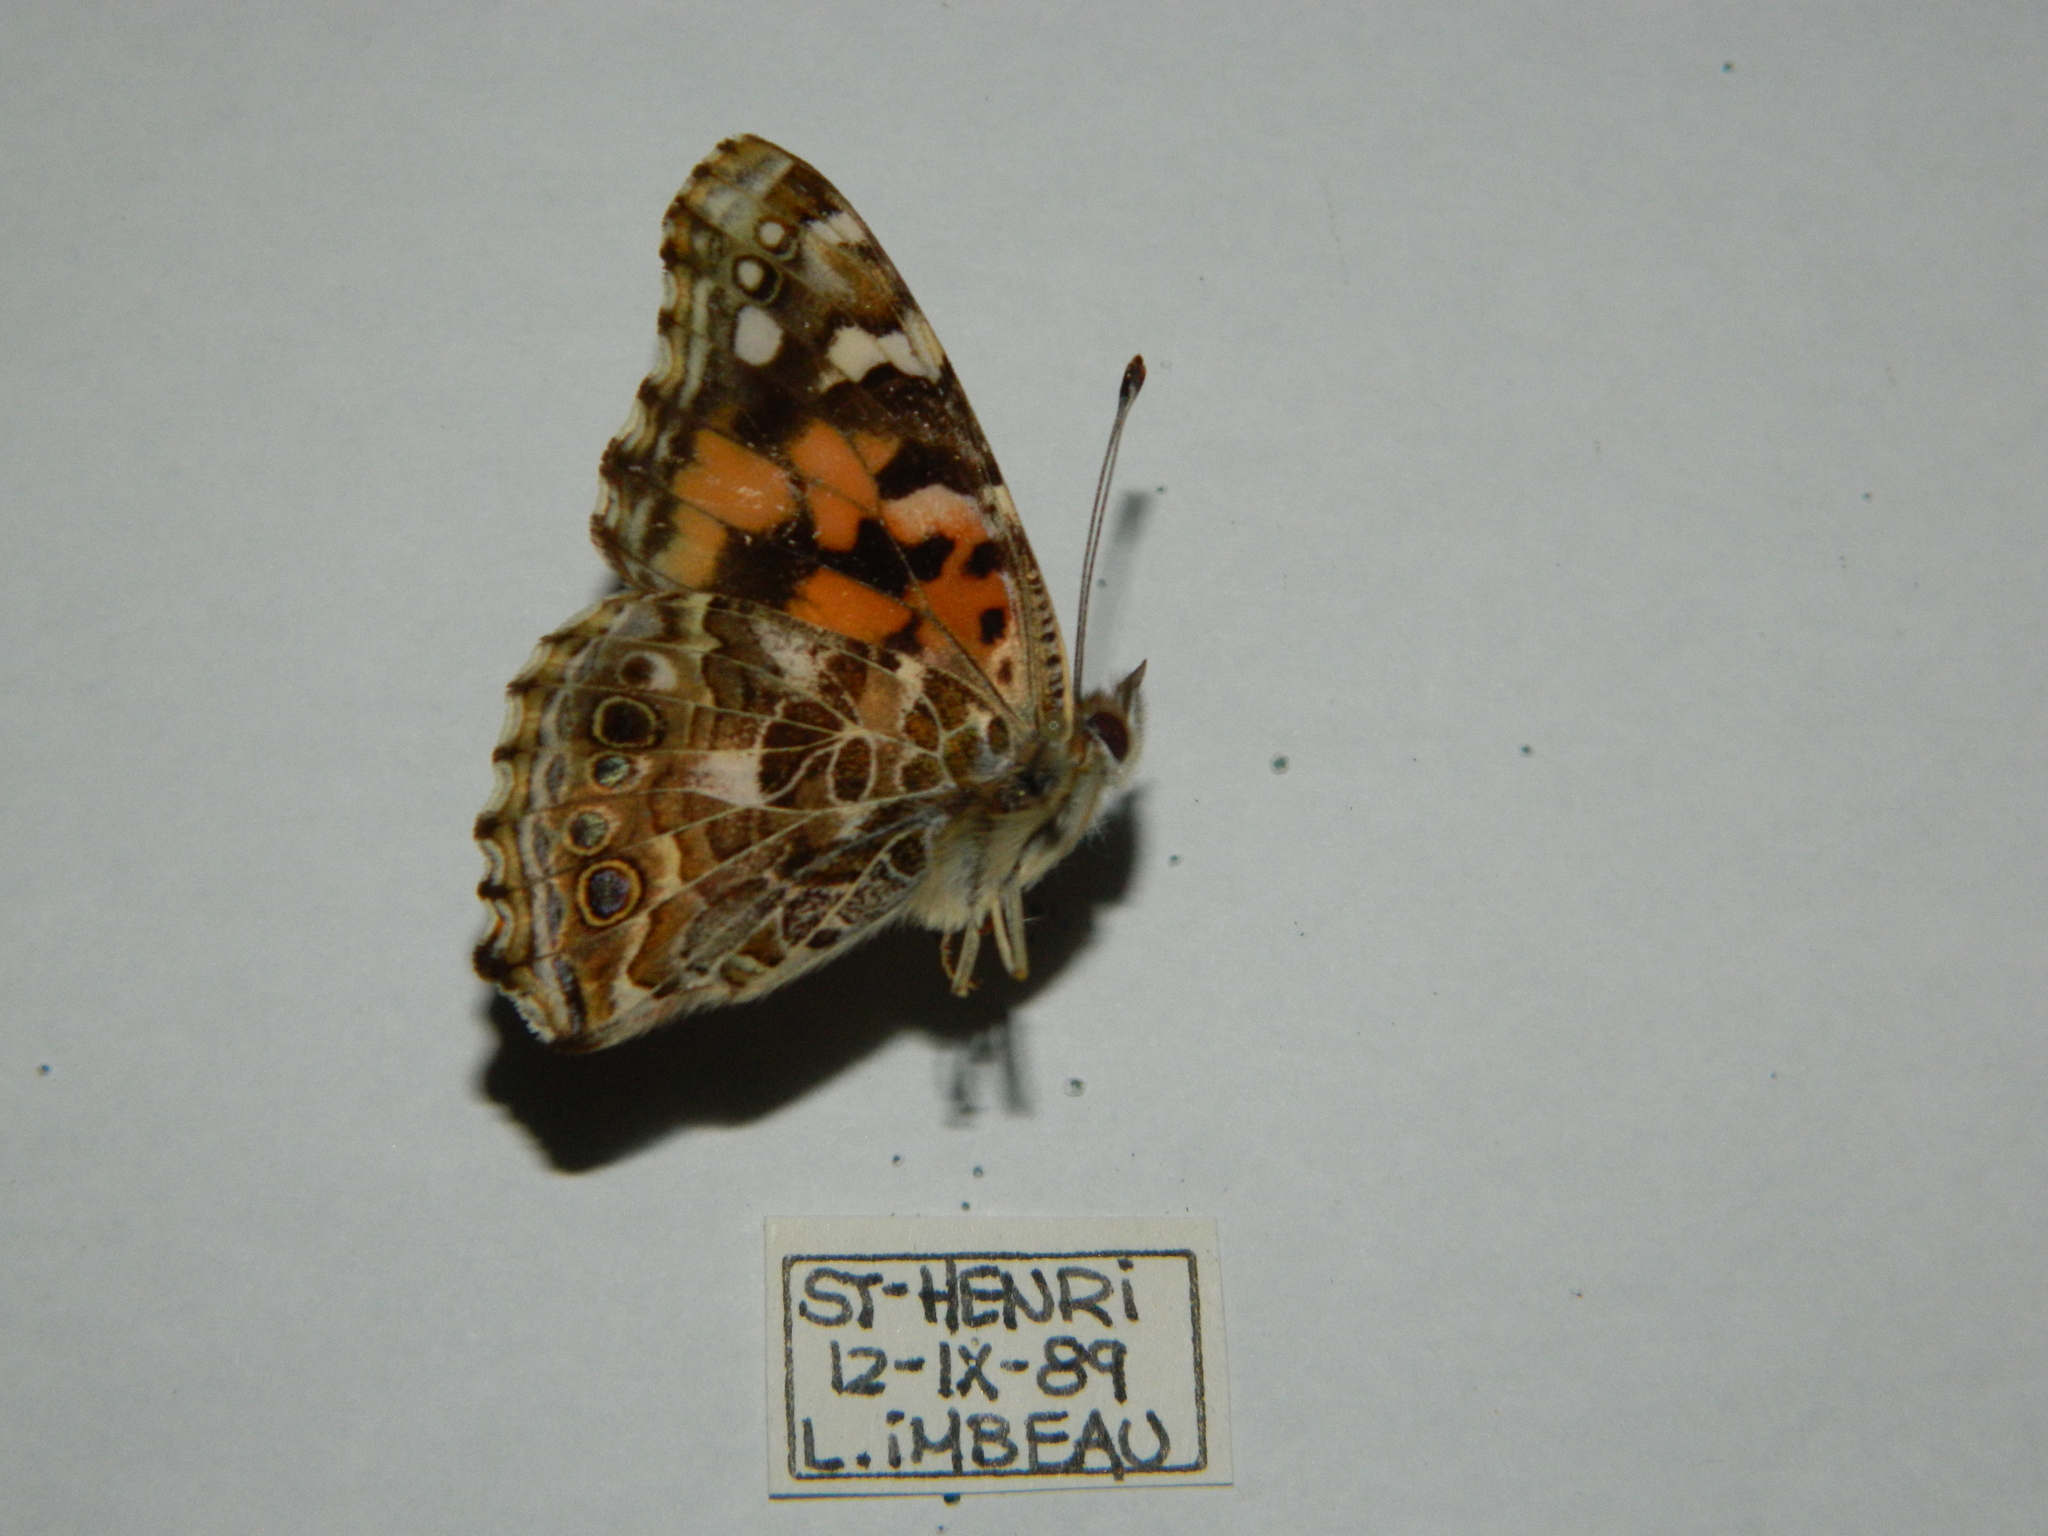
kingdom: Animalia
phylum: Arthropoda
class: Insecta
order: Lepidoptera
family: Nymphalidae
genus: Vanessa
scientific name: Vanessa cardui
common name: Painted lady
